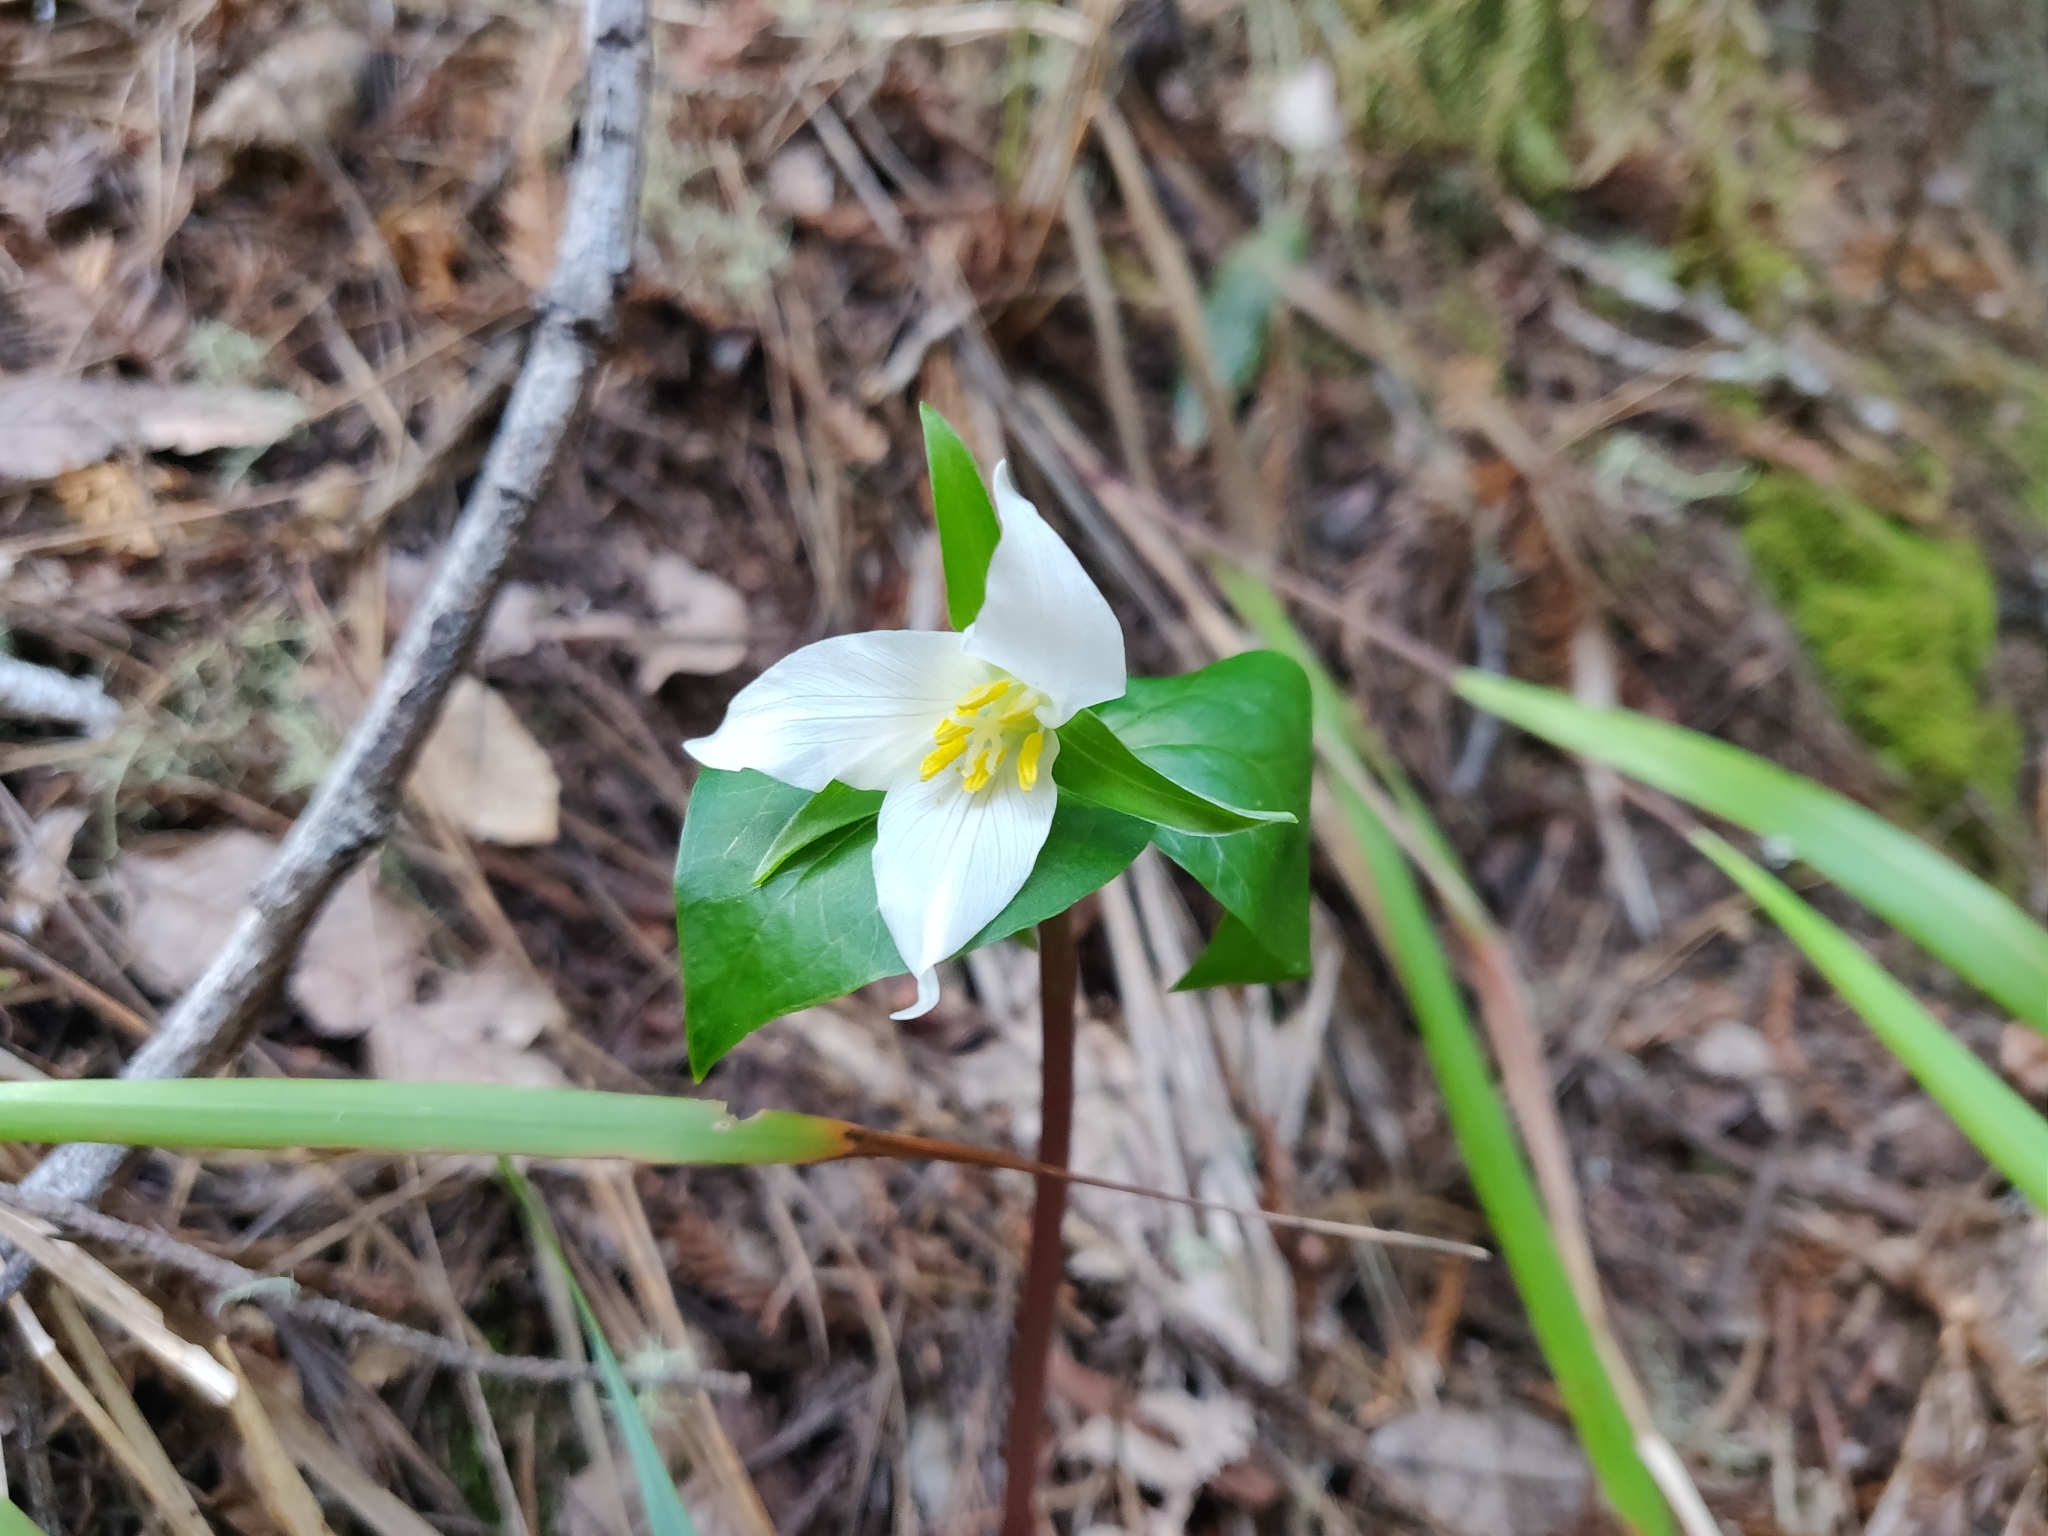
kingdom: Plantae
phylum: Tracheophyta
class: Liliopsida
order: Liliales
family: Melanthiaceae
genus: Trillium
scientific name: Trillium ovatum
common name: Pacific trillium
